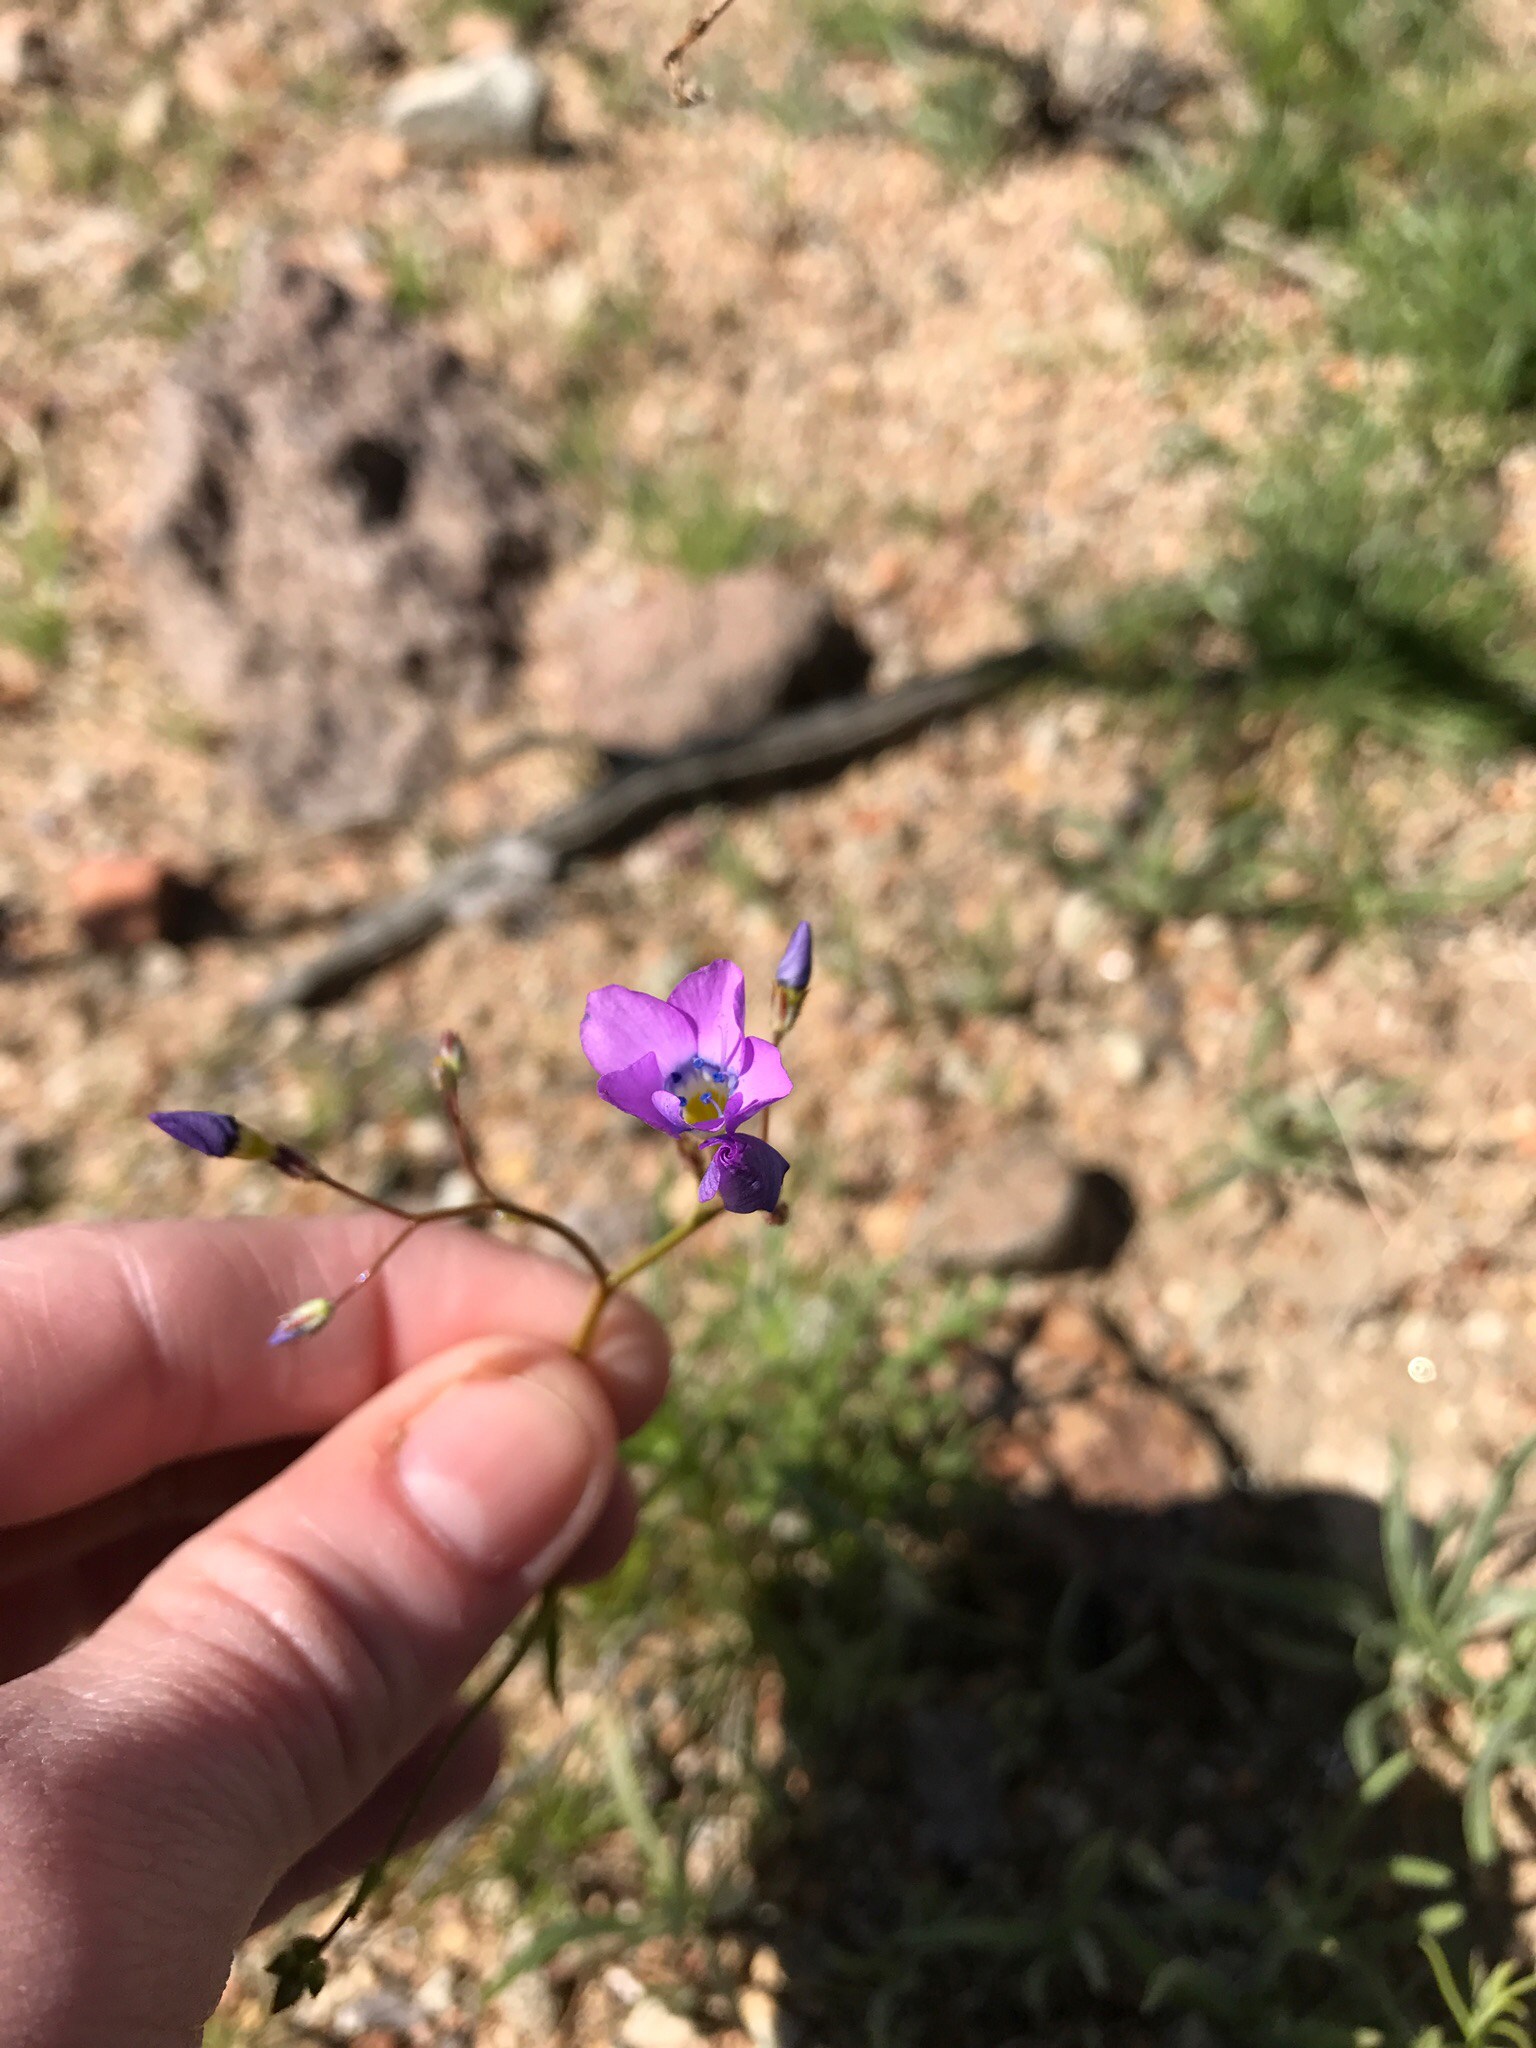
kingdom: Plantae
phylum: Tracheophyta
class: Magnoliopsida
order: Ericales
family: Polemoniaceae
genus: Gilia
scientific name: Gilia cana
